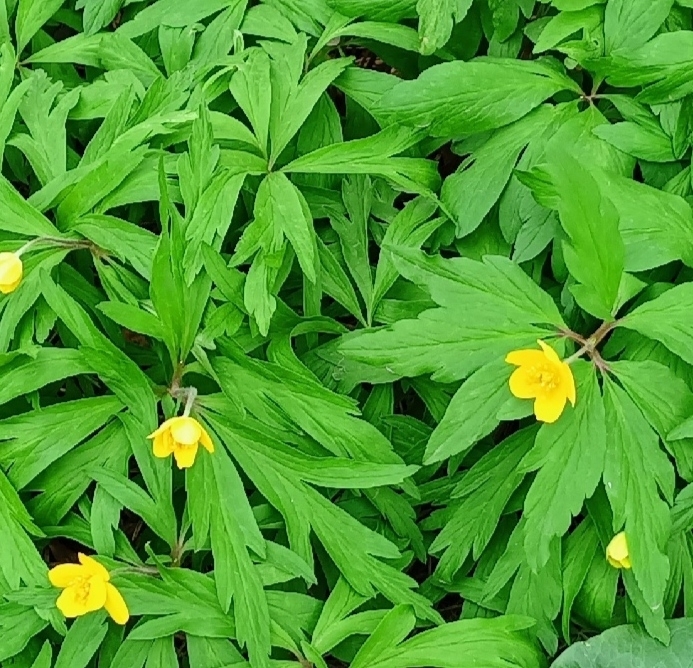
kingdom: Plantae
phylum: Tracheophyta
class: Magnoliopsida
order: Ranunculales
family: Ranunculaceae
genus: Anemone
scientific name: Anemone ranunculoides
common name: Yellow anemone
